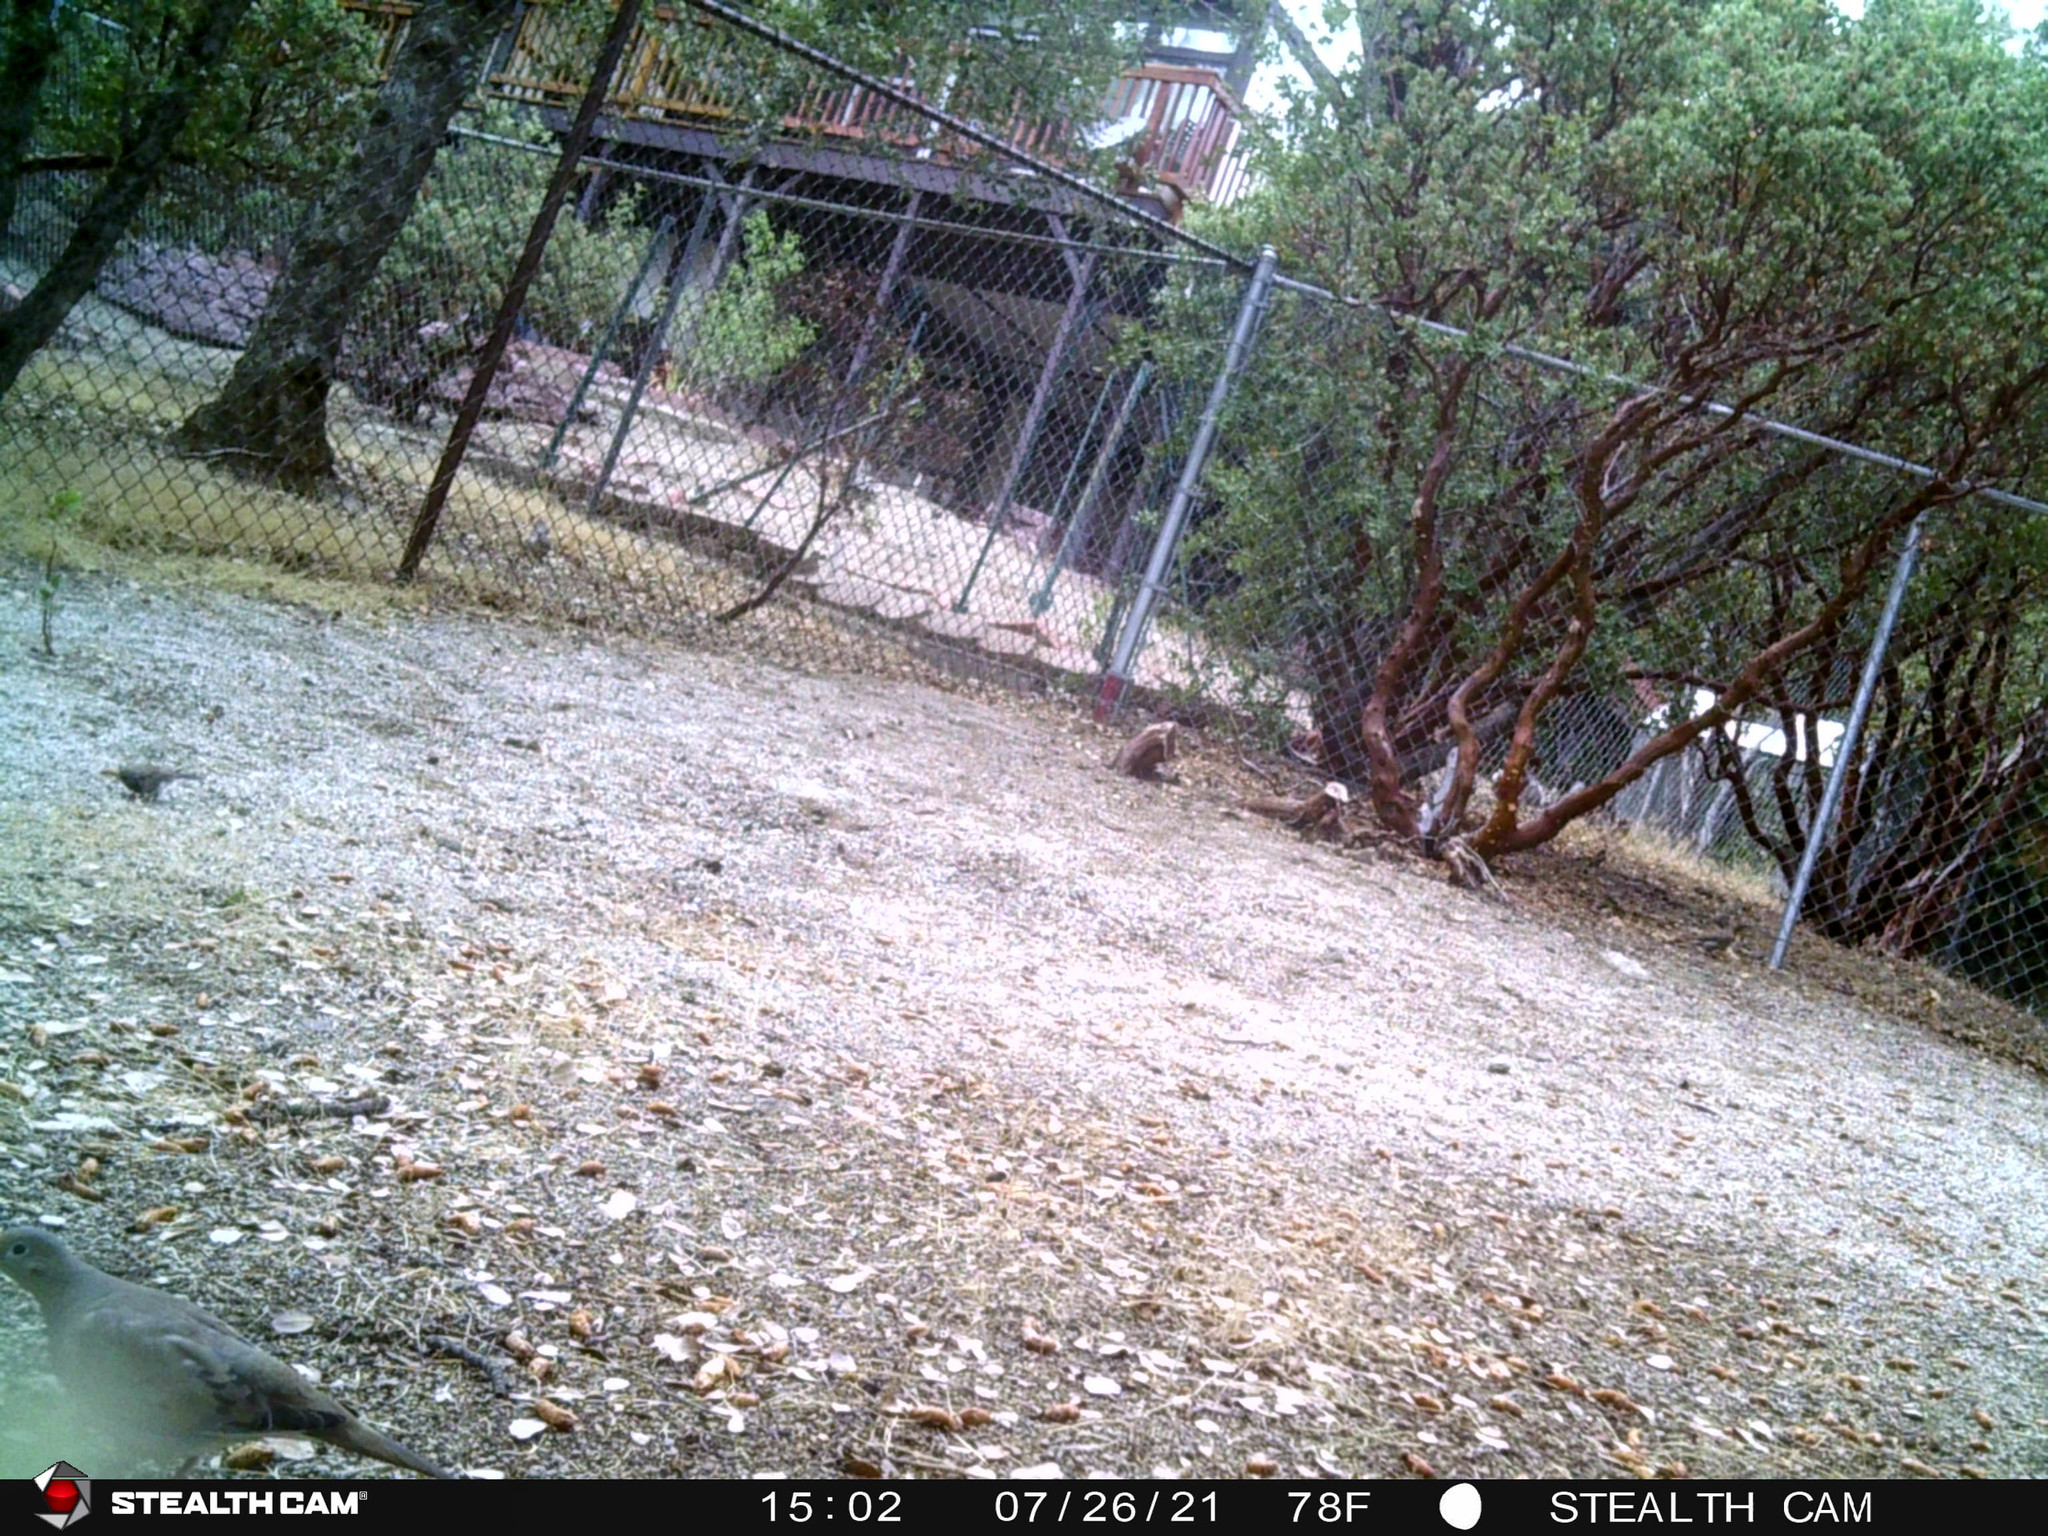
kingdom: Animalia
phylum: Chordata
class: Aves
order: Columbiformes
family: Columbidae
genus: Zenaida
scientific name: Zenaida macroura
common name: Mourning dove
